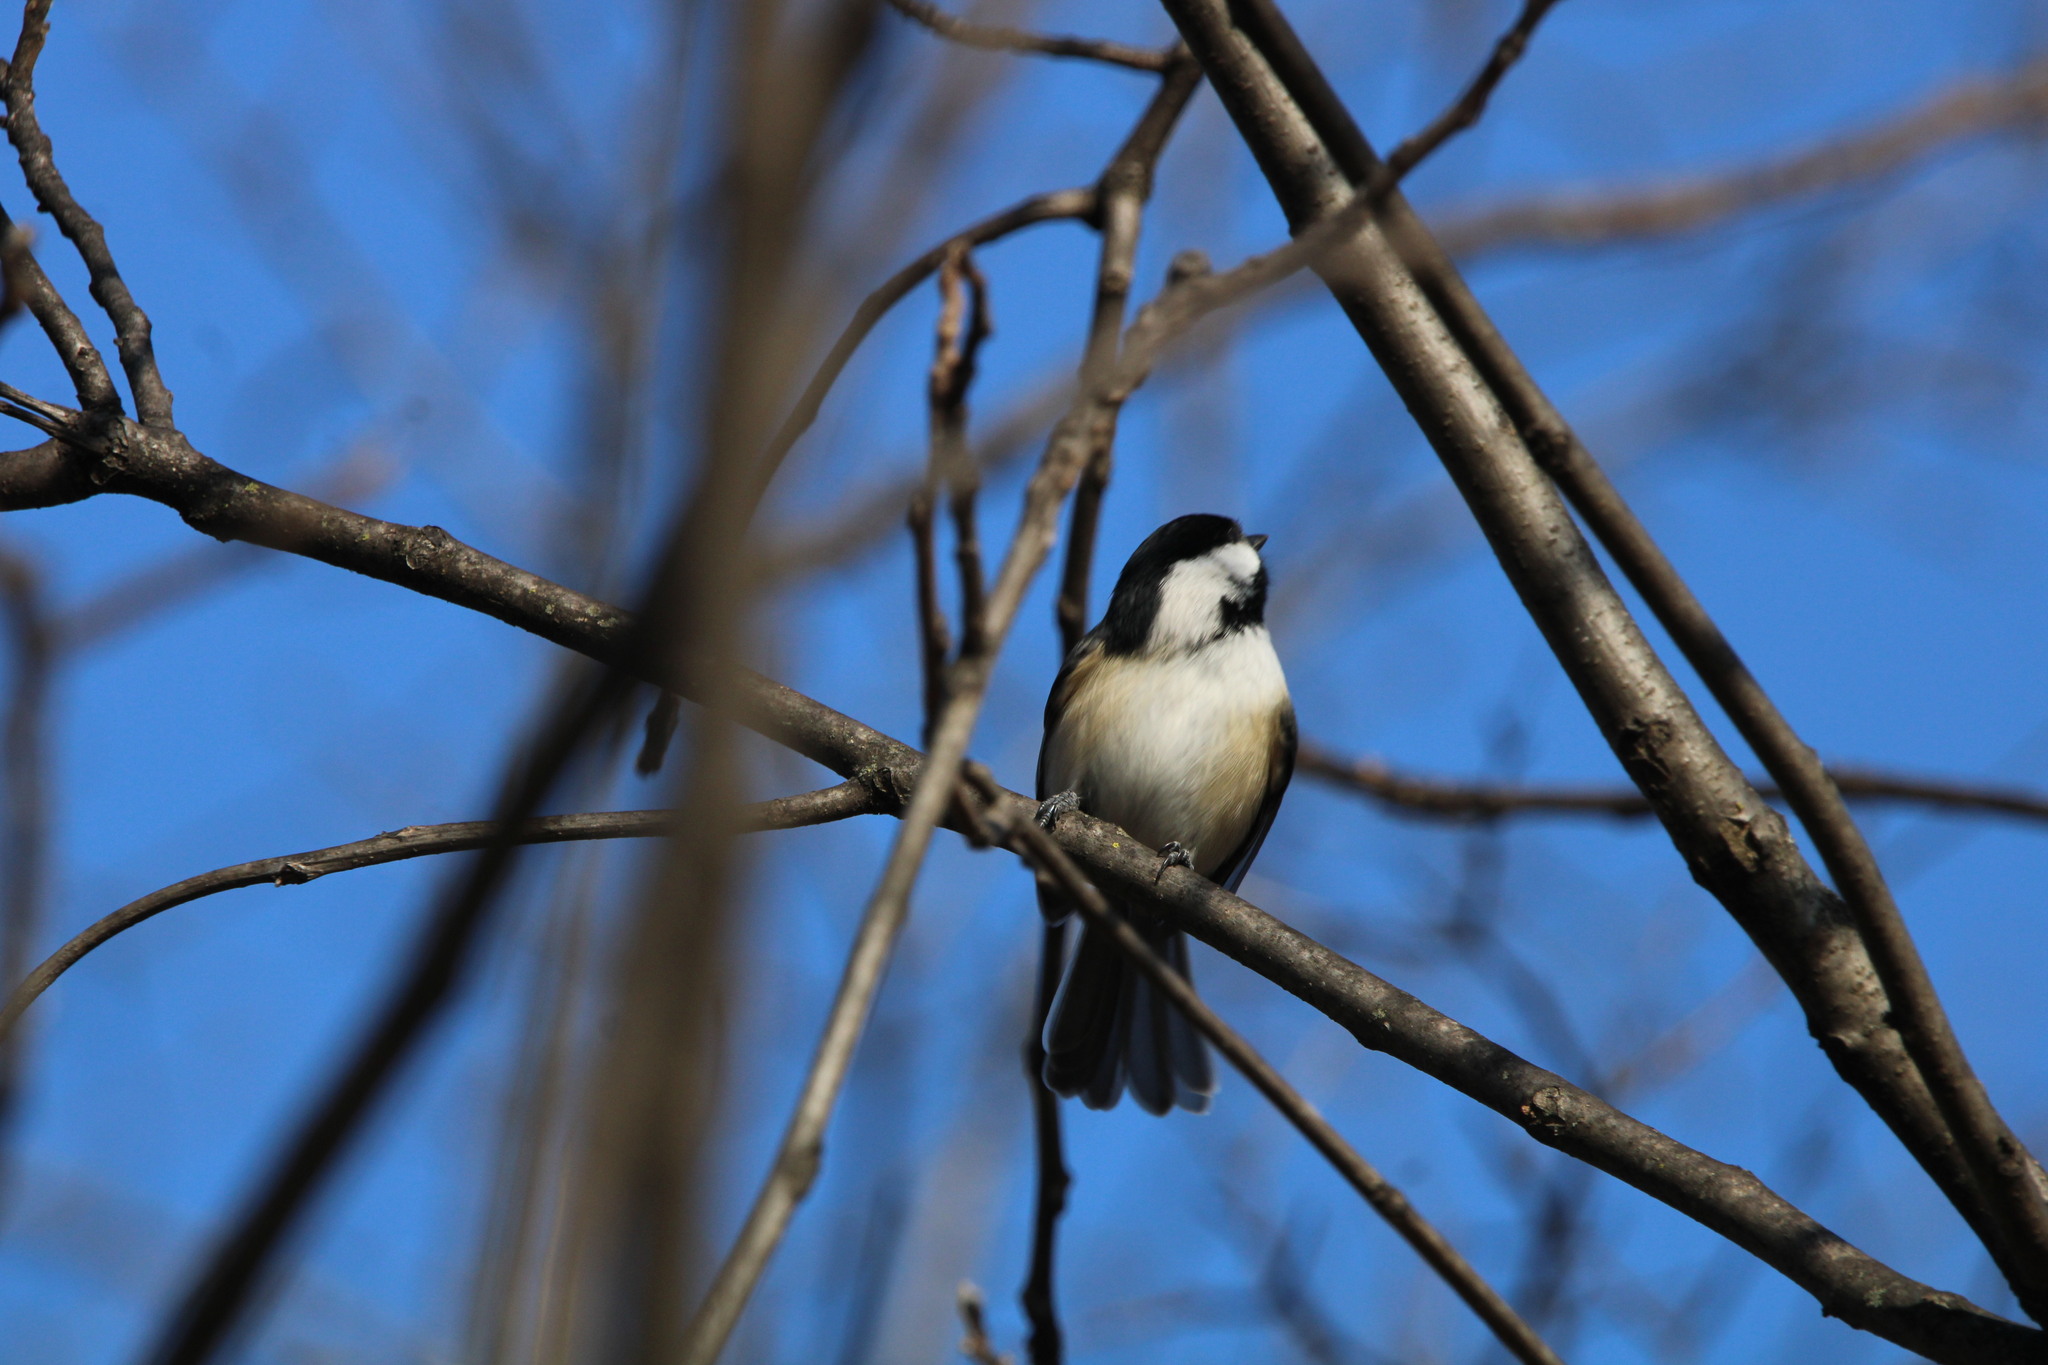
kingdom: Animalia
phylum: Chordata
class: Aves
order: Passeriformes
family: Paridae
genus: Poecile
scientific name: Poecile atricapillus
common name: Black-capped chickadee
